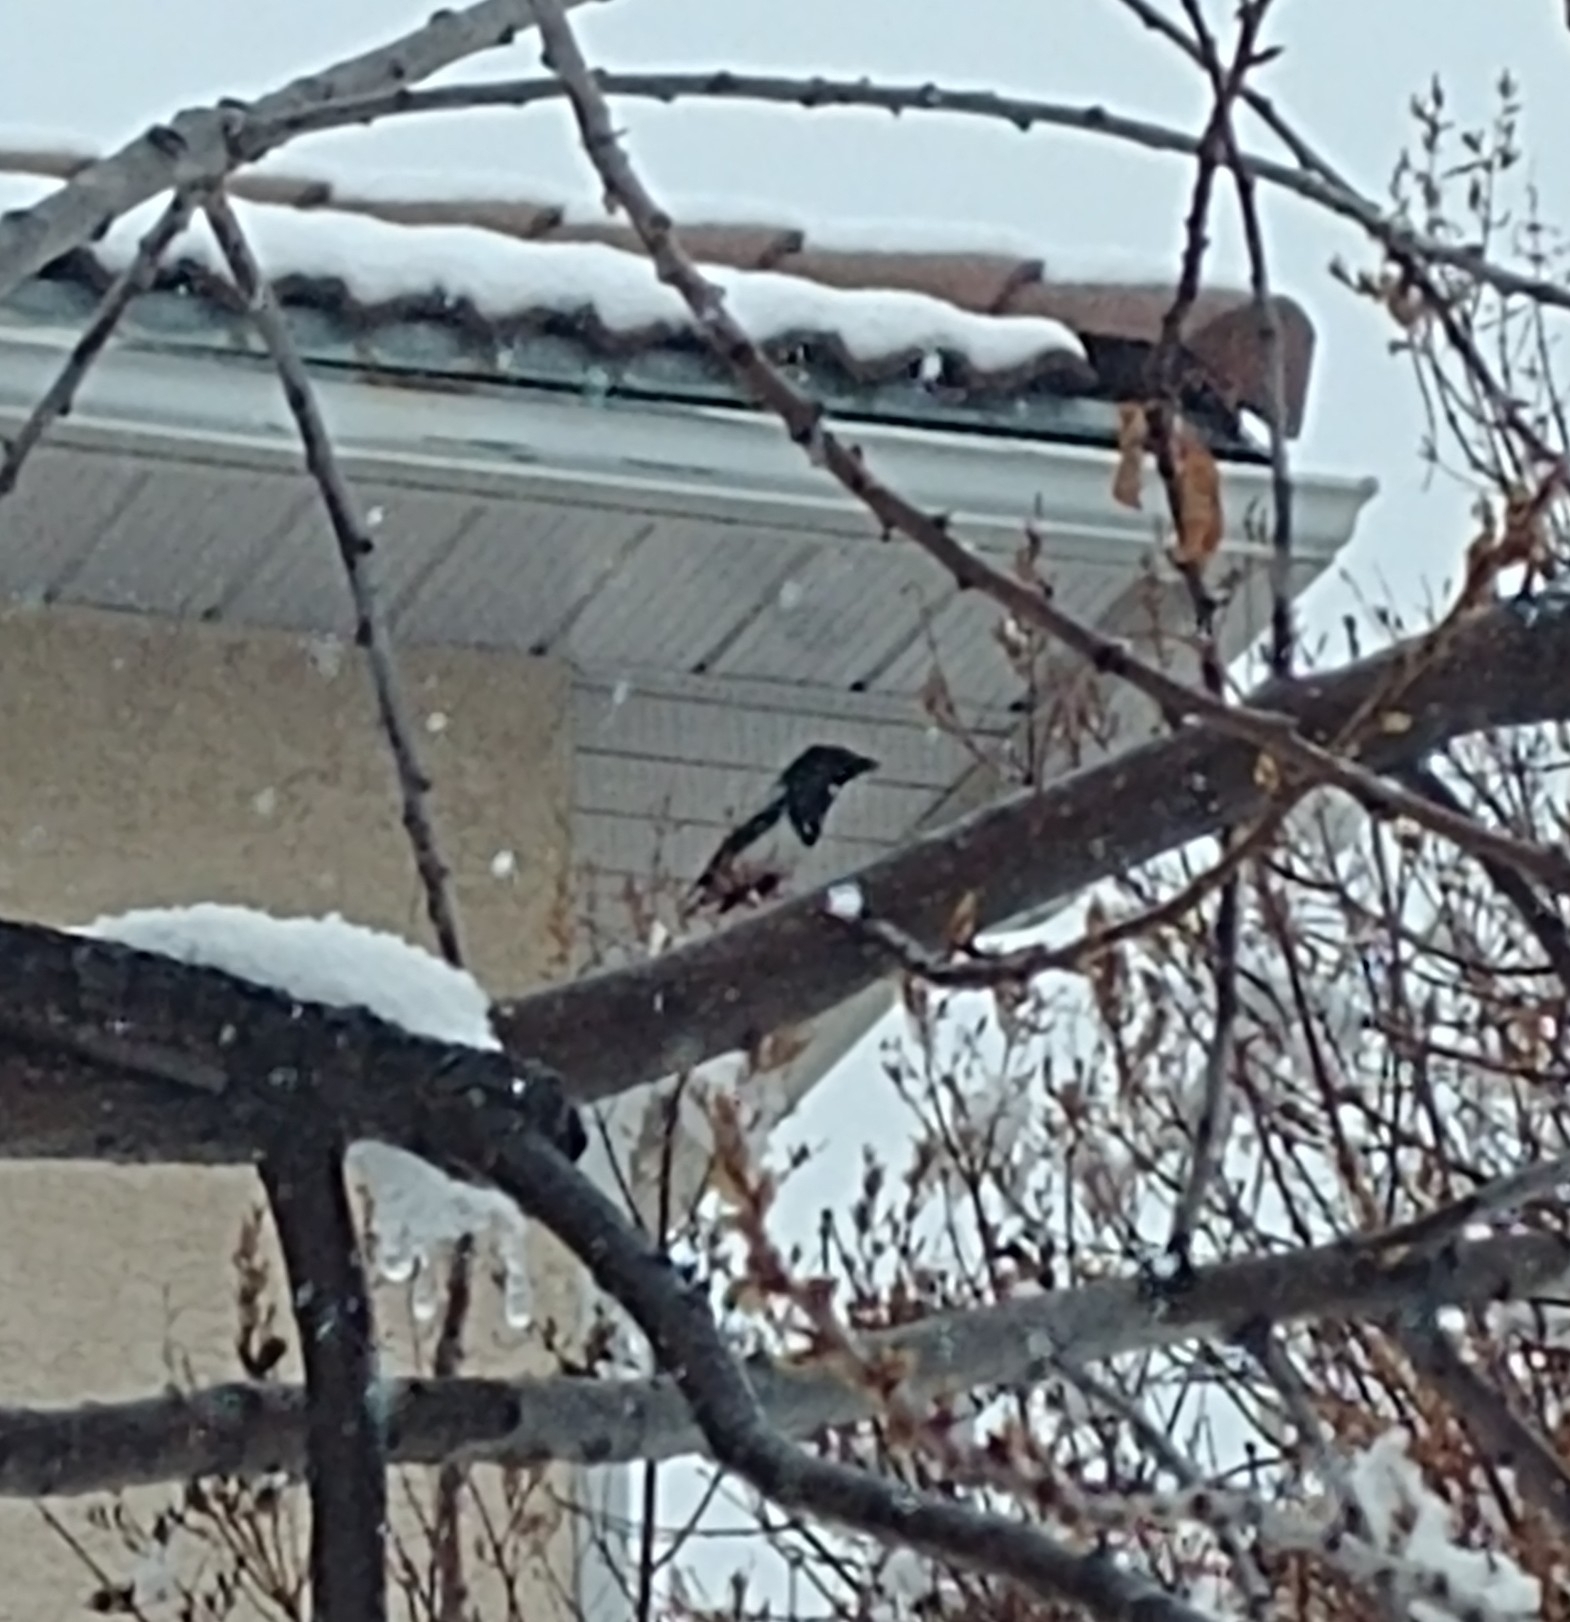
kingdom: Animalia
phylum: Chordata
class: Aves
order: Passeriformes
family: Corvidae
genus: Pica
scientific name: Pica hudsonia
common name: Black-billed magpie
